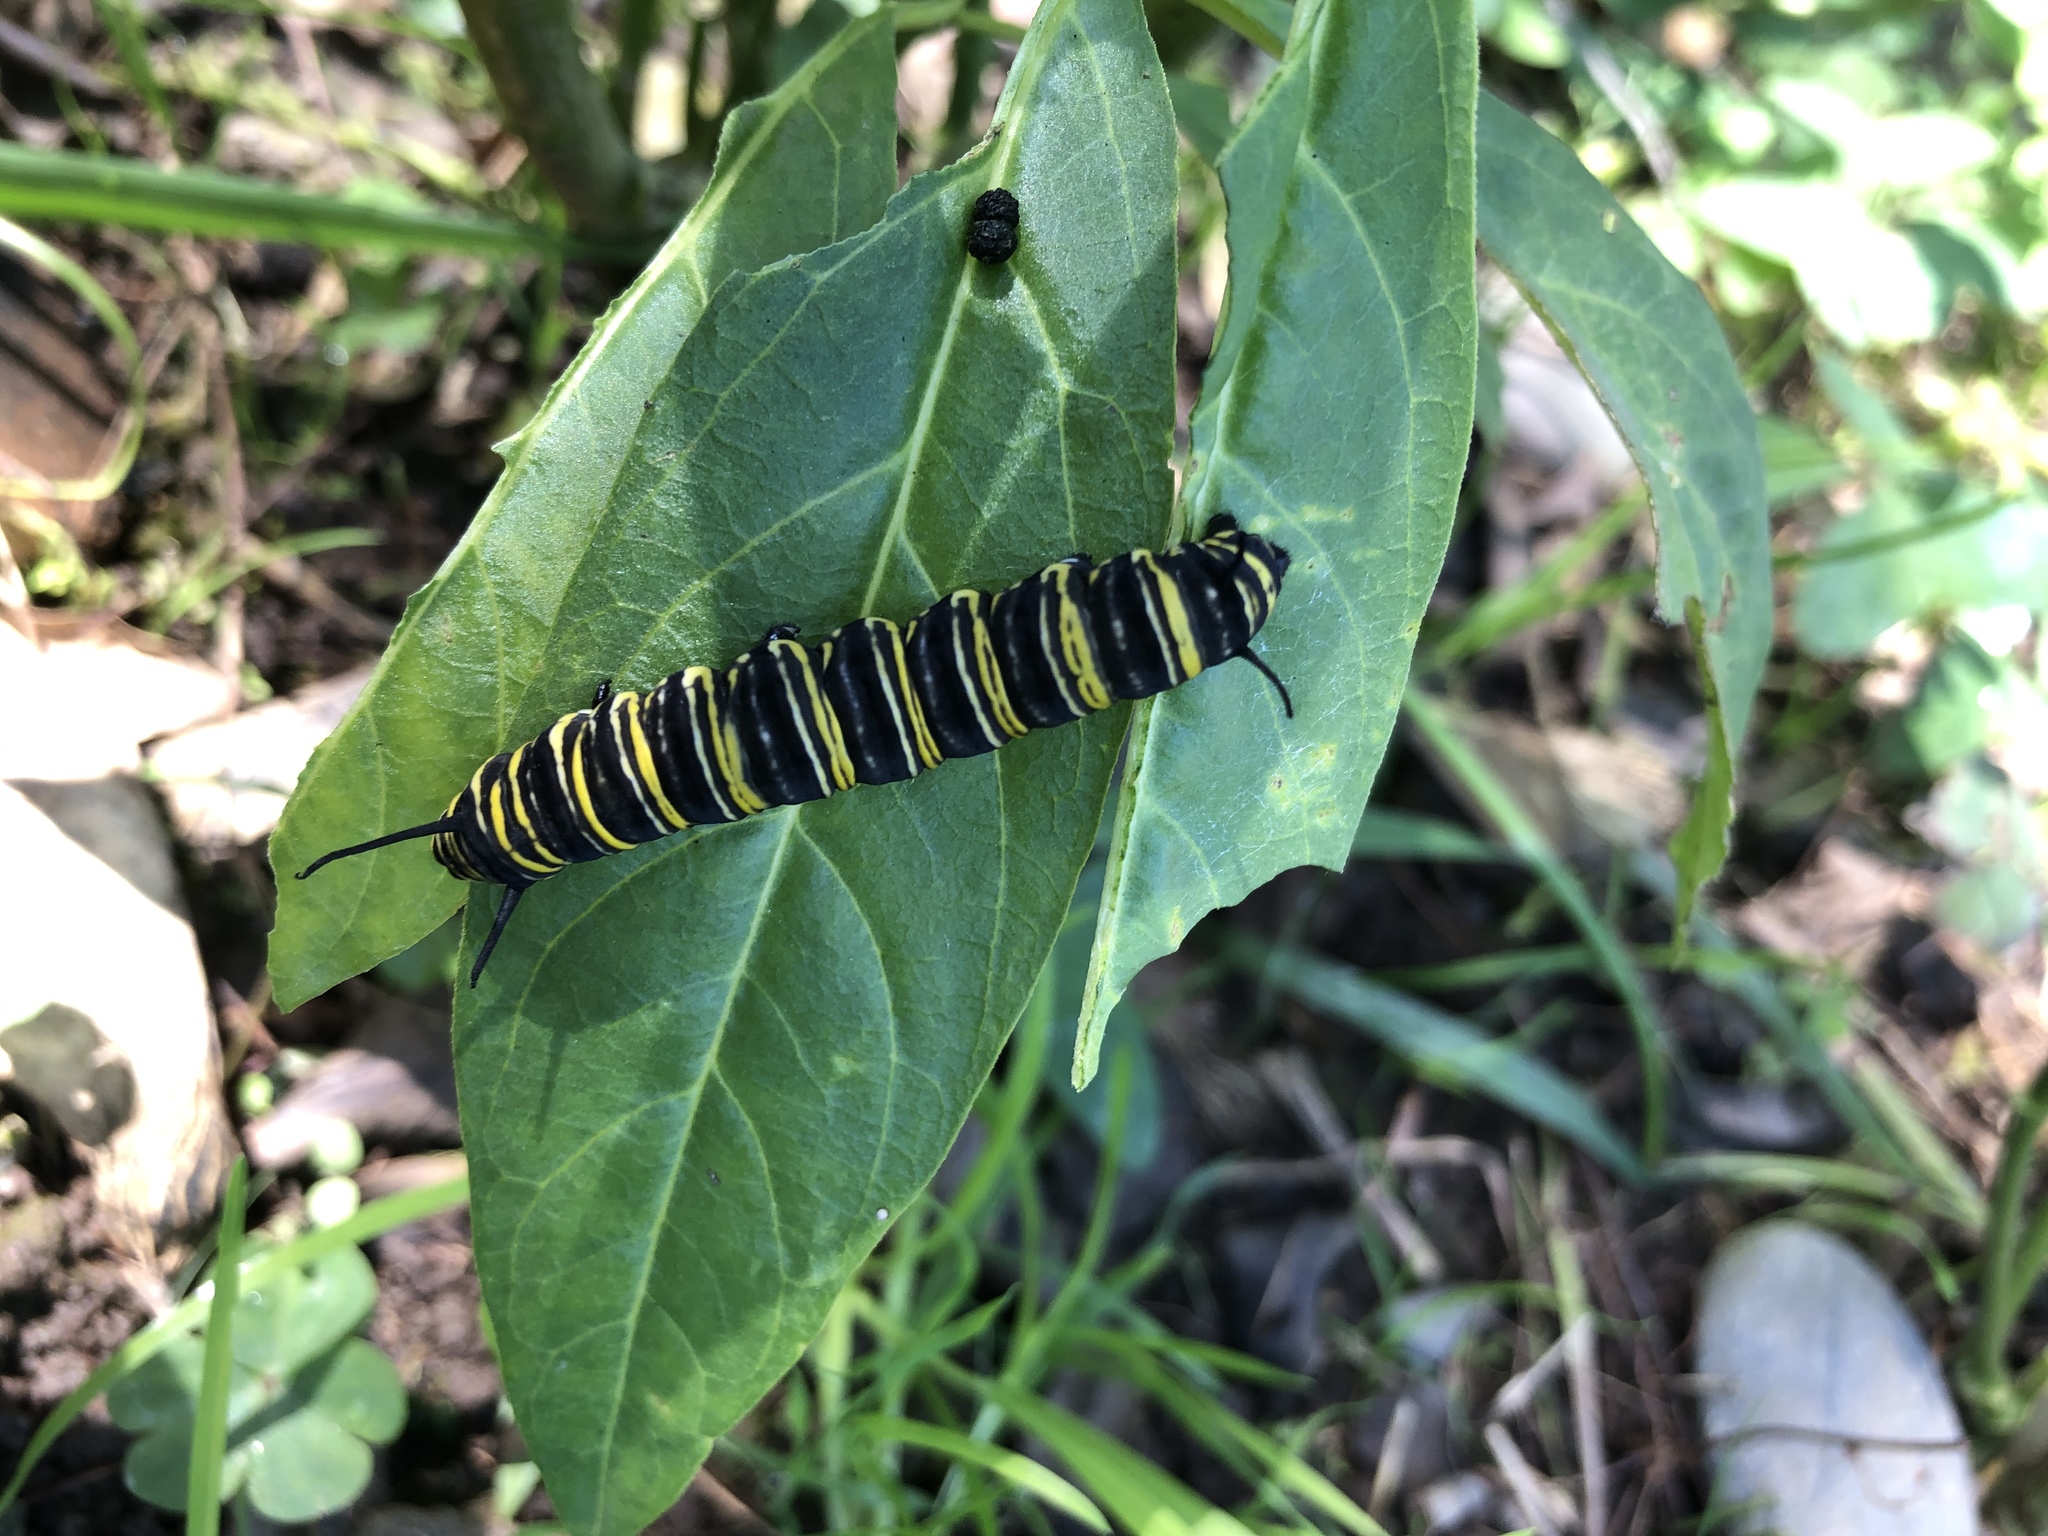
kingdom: Animalia
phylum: Arthropoda
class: Insecta
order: Lepidoptera
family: Nymphalidae
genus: Danaus
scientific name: Danaus plexippus
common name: Monarch
